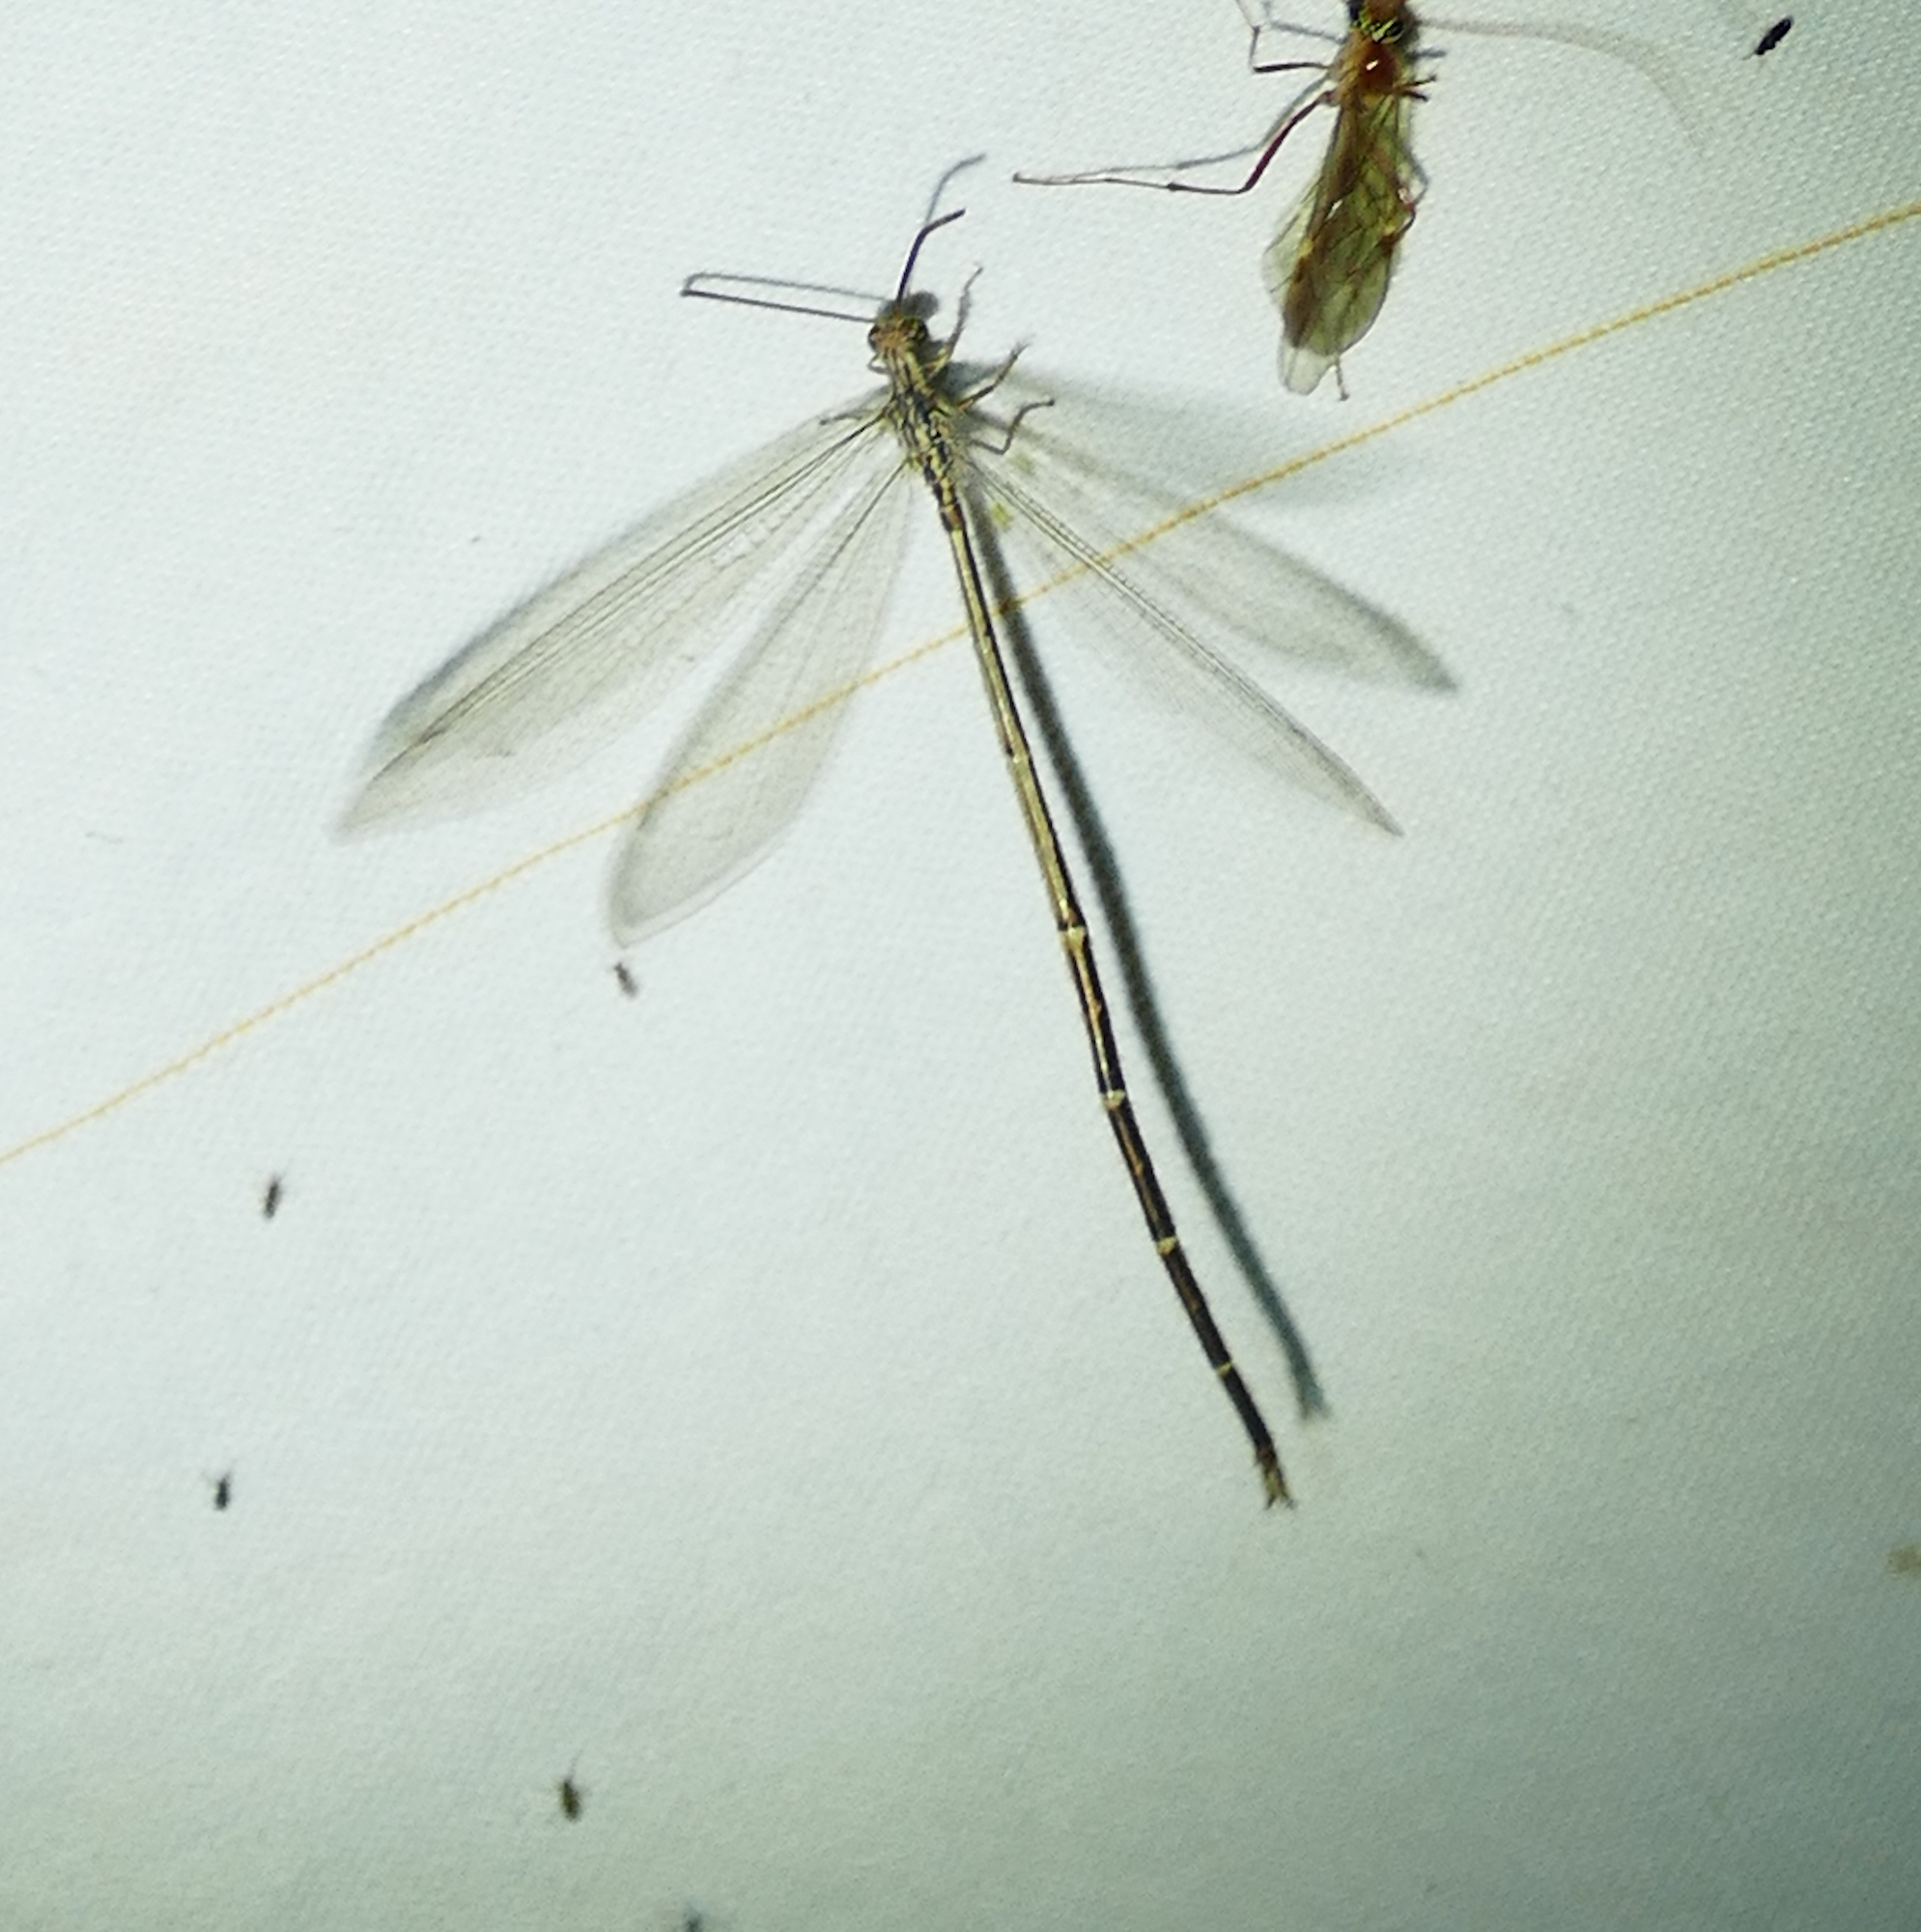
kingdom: Animalia
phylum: Arthropoda
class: Insecta
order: Neuroptera
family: Myrmeleontidae
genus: Brachynemurus
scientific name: Brachynemurus hubbardii
